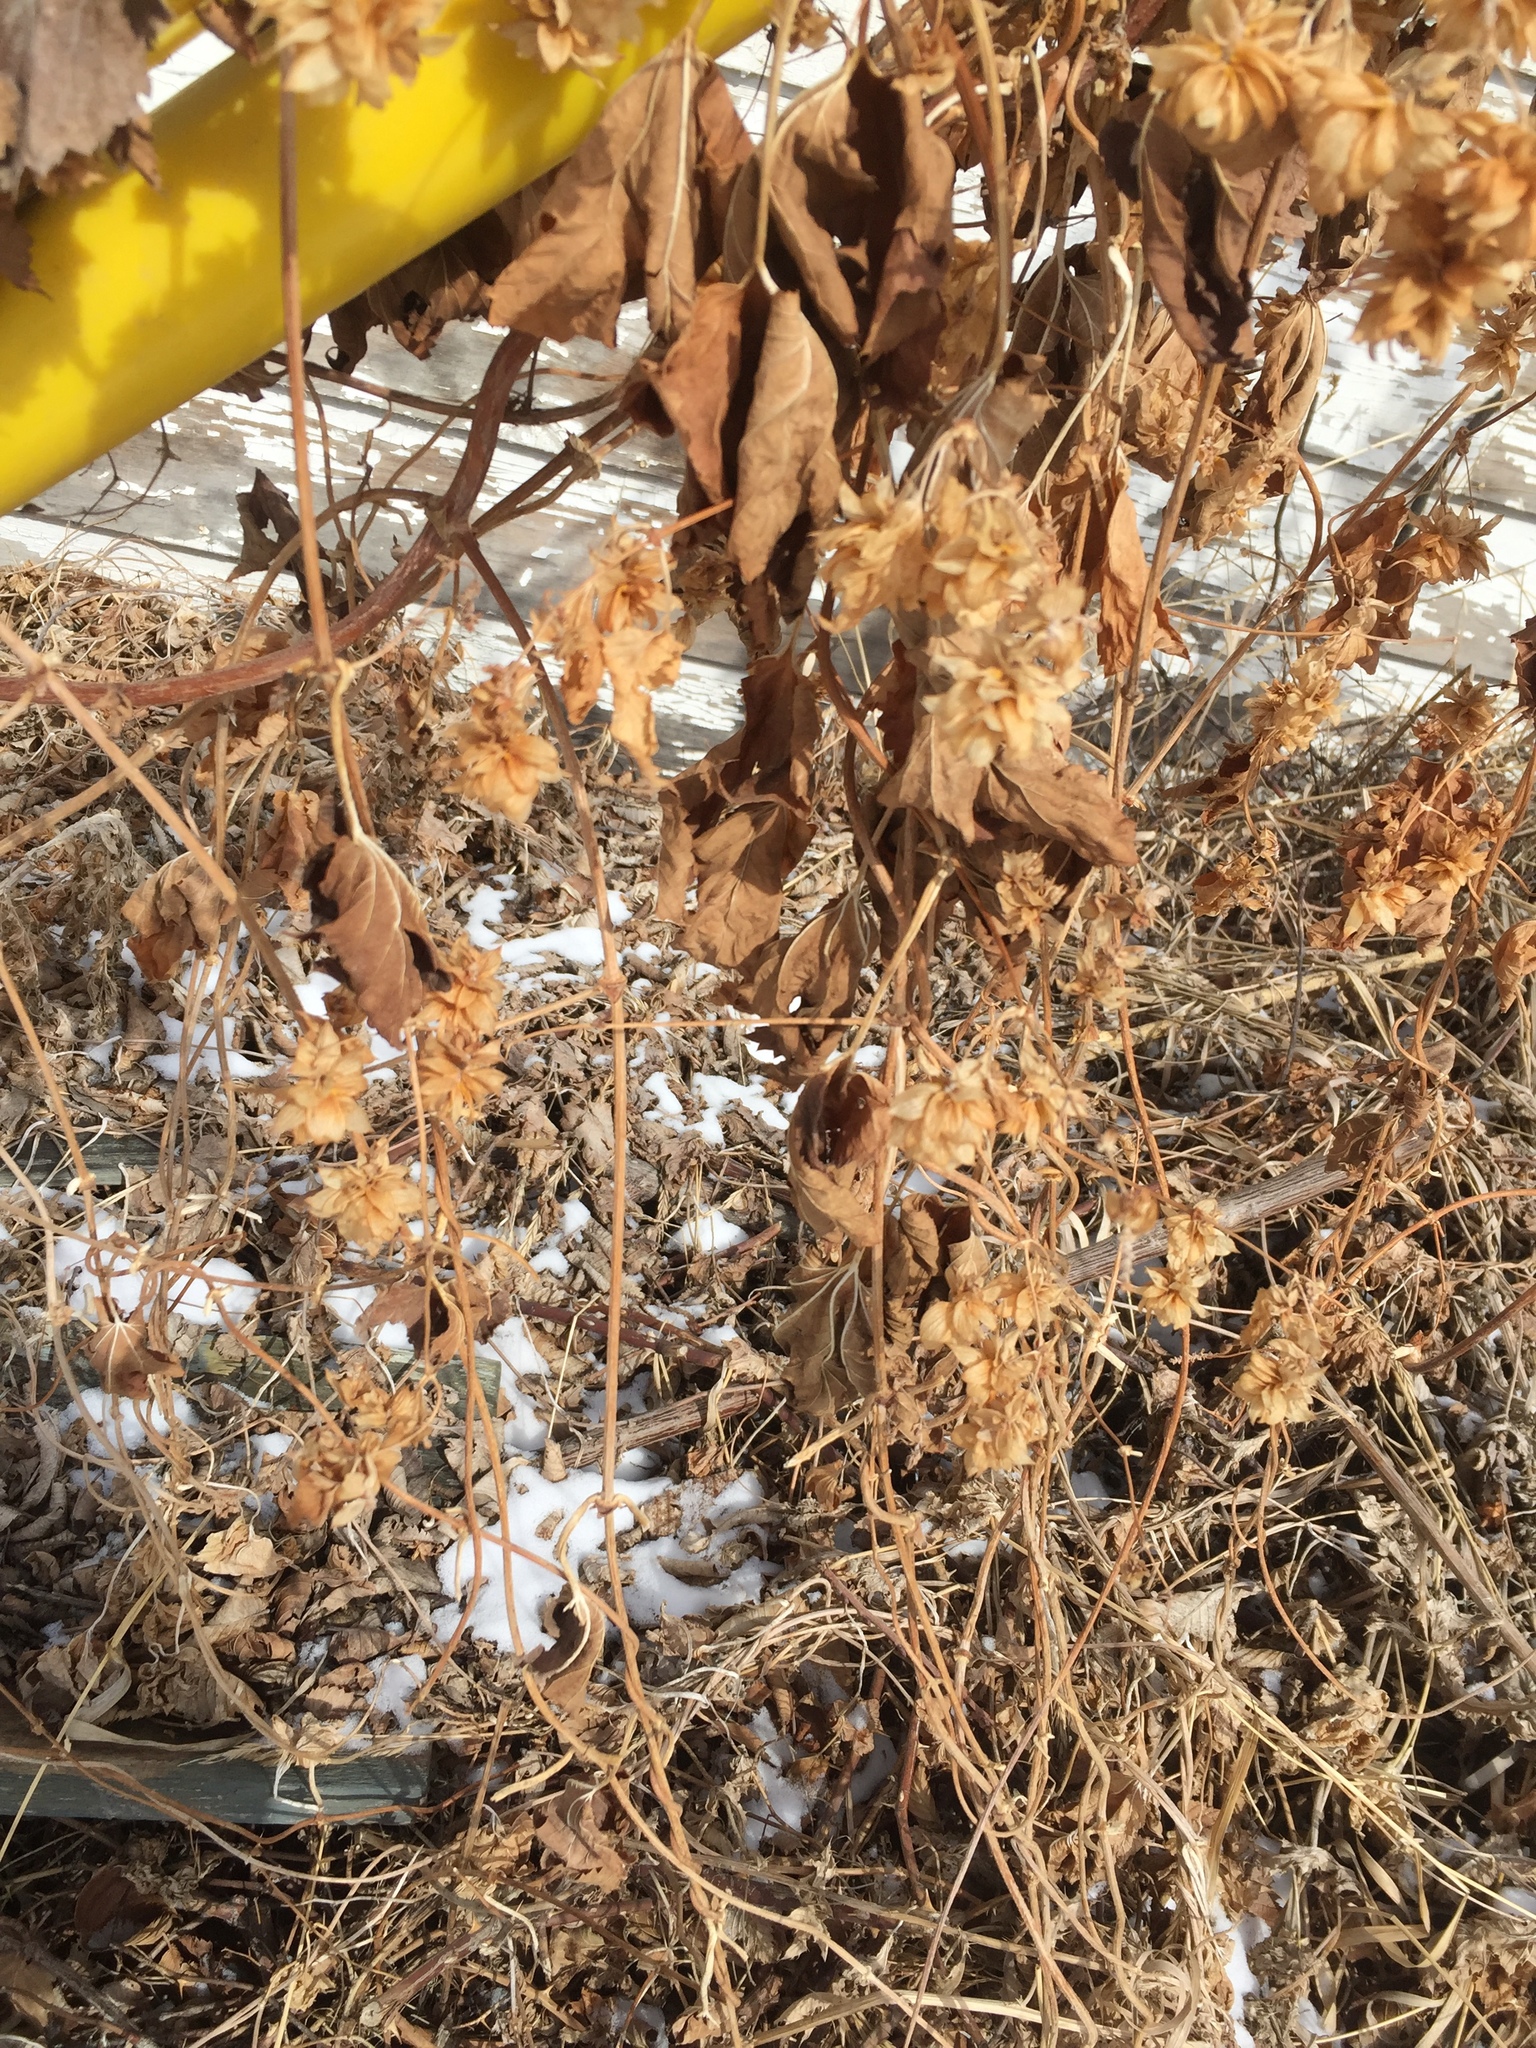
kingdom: Plantae
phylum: Tracheophyta
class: Magnoliopsida
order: Rosales
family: Cannabaceae
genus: Humulus
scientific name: Humulus lupulus
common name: Hop
